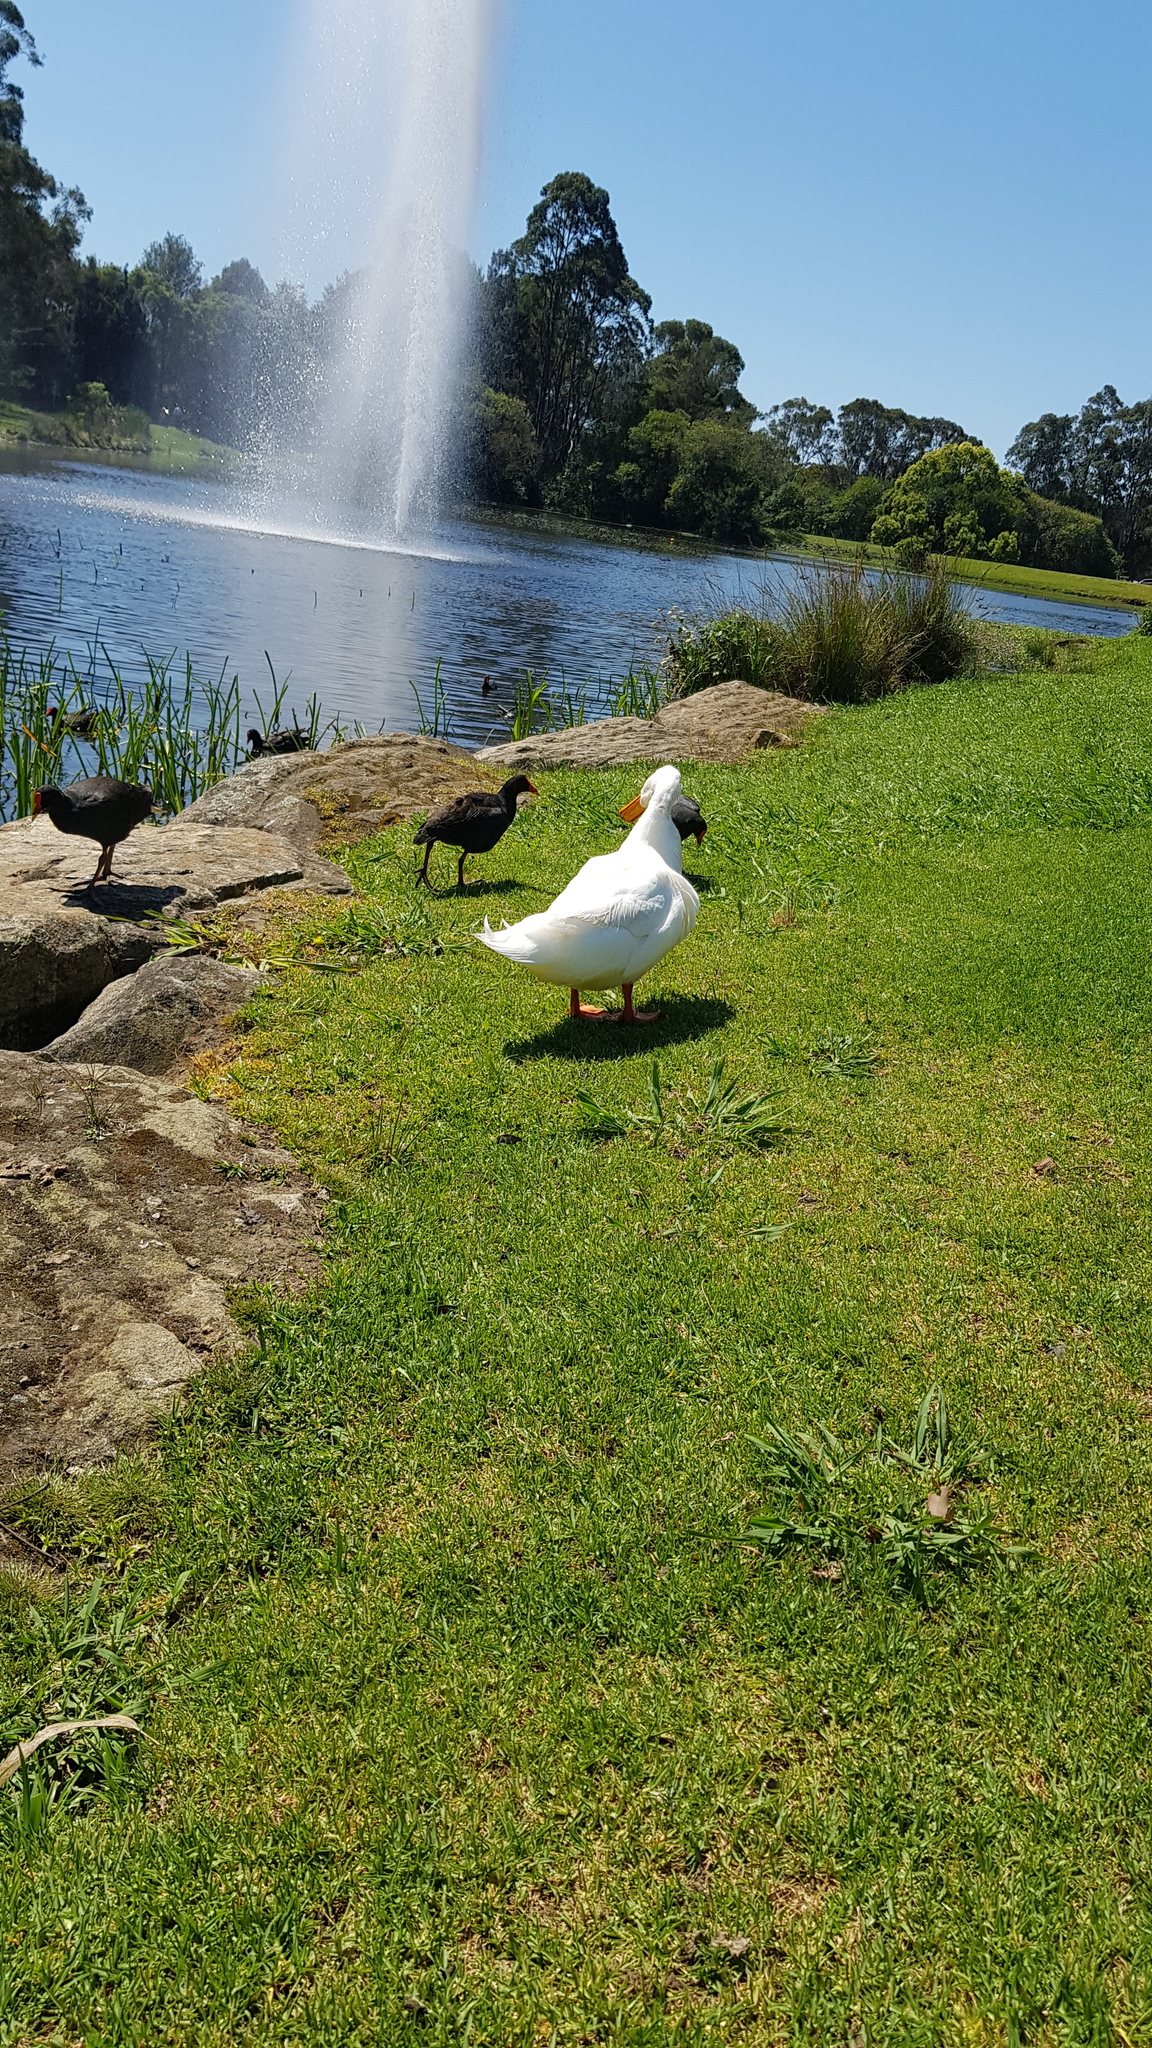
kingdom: Animalia
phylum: Chordata
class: Aves
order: Anseriformes
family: Anatidae
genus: Anas
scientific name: Anas platyrhynchos
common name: Mallard
